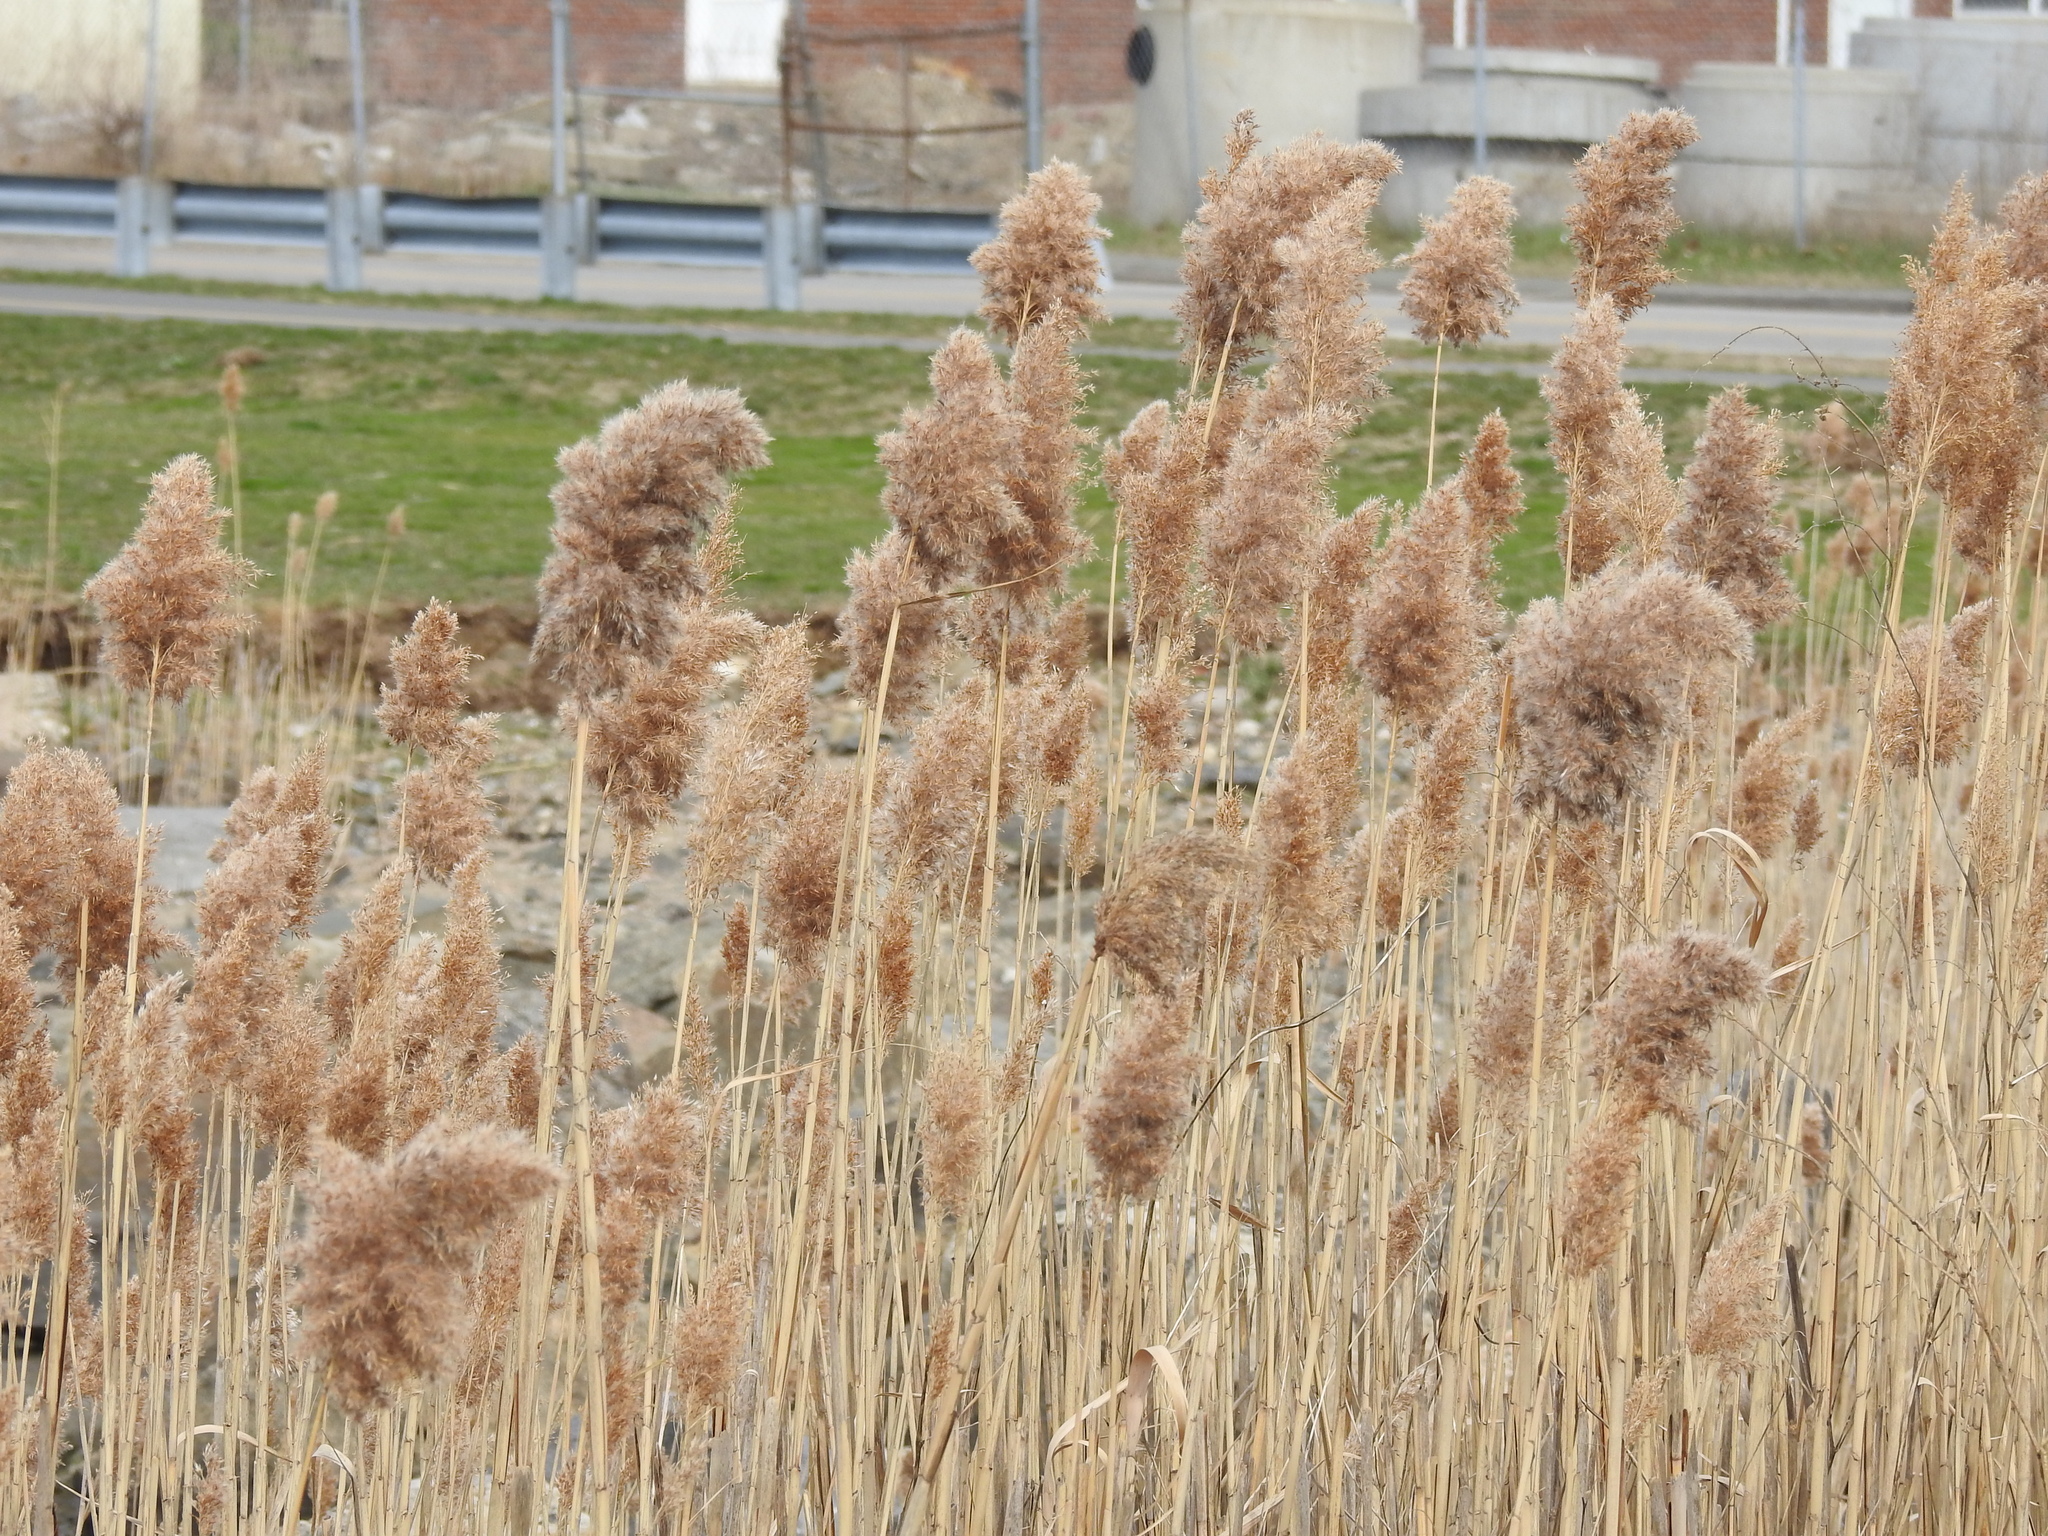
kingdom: Plantae
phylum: Tracheophyta
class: Liliopsida
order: Poales
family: Poaceae
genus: Phragmites
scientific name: Phragmites australis
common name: Common reed
